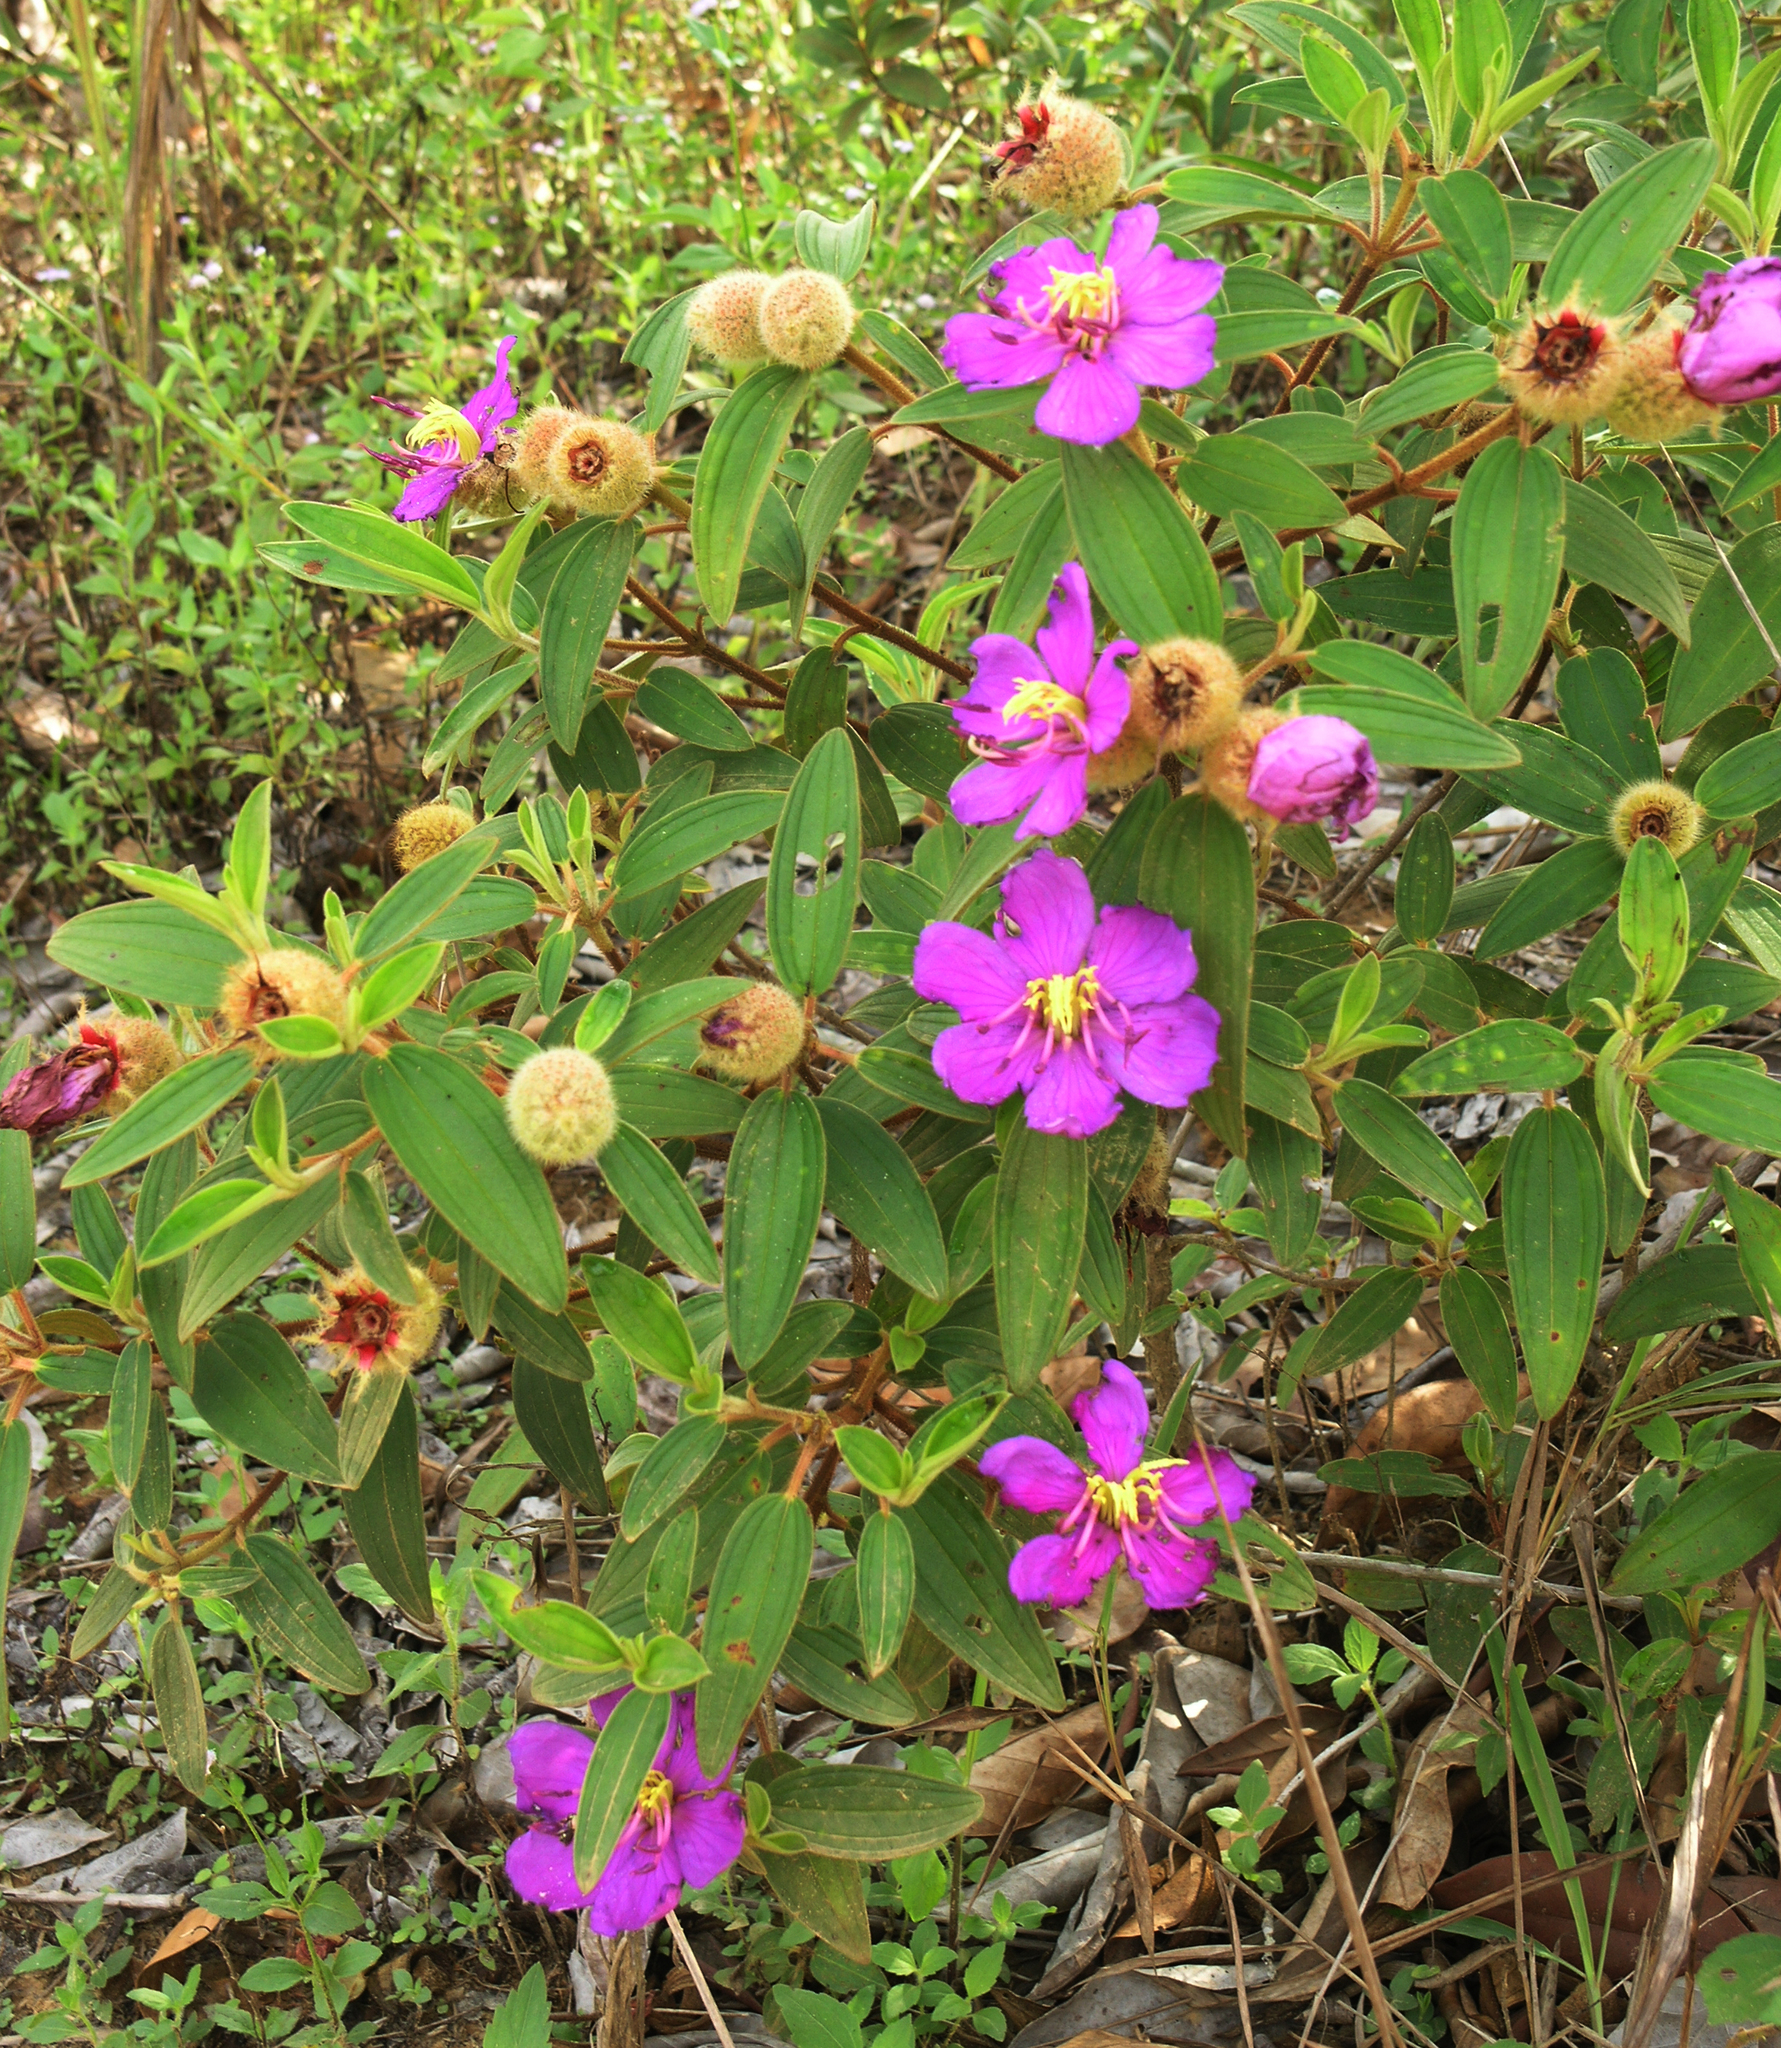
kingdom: Plantae
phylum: Tracheophyta
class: Magnoliopsida
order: Myrtales
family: Melastomataceae
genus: Melastoma
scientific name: Melastoma saigonense
